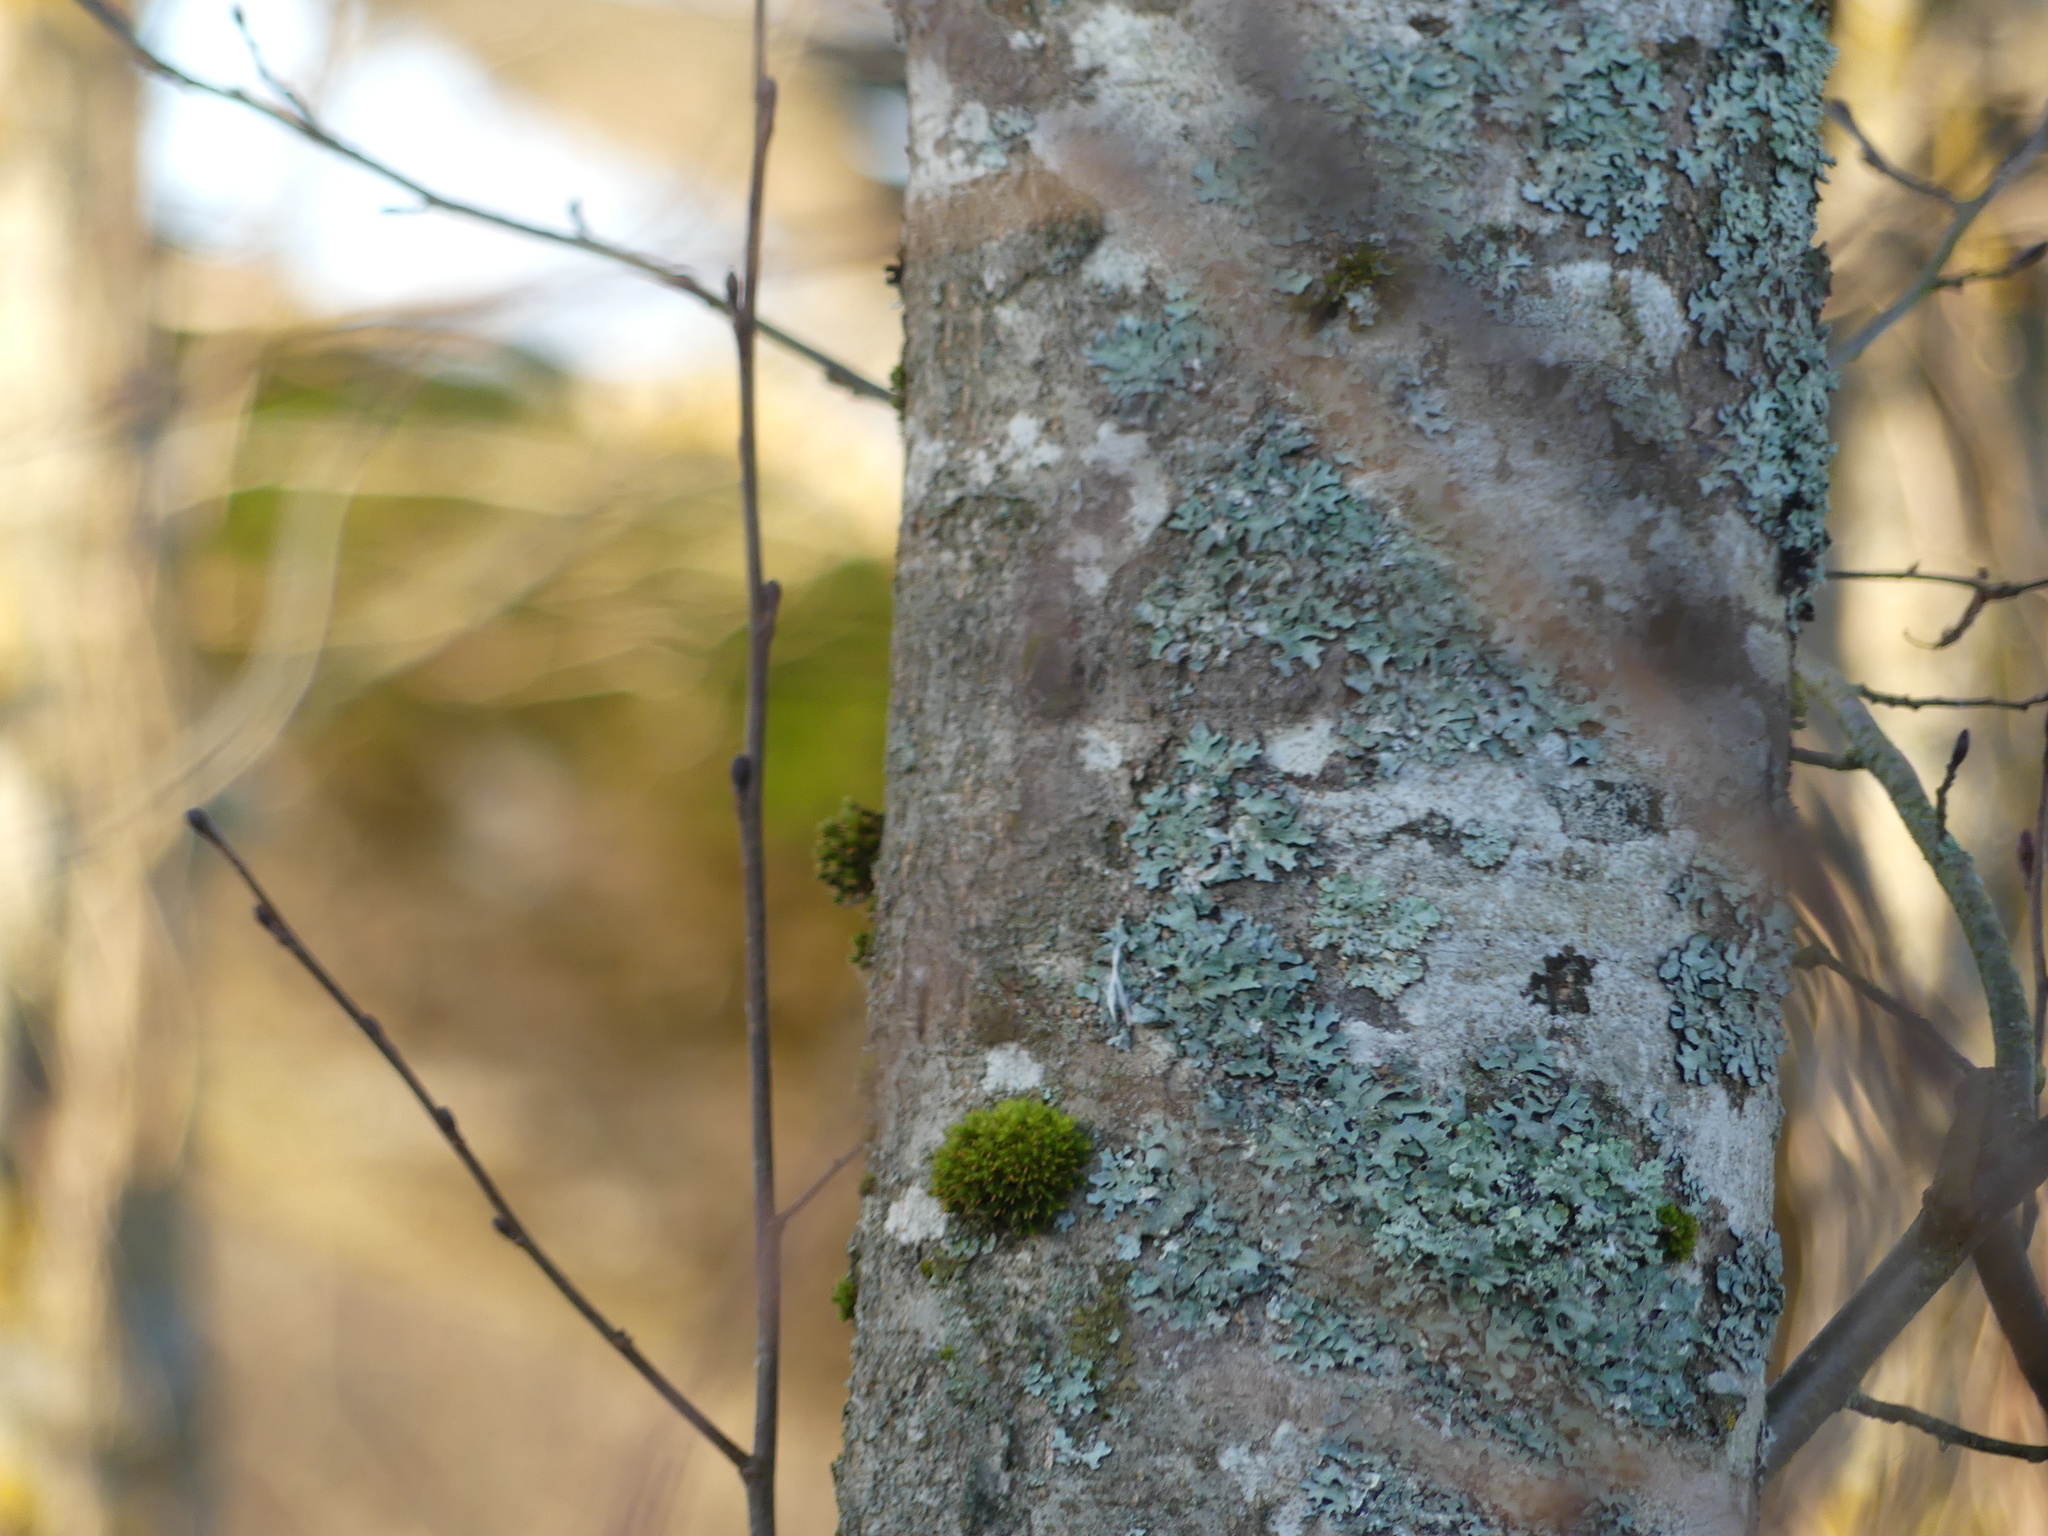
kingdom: Fungi
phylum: Ascomycota
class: Lecanoromycetes
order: Lecanorales
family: Parmeliaceae
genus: Parmelia
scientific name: Parmelia sulcata
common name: Netted shield lichen
